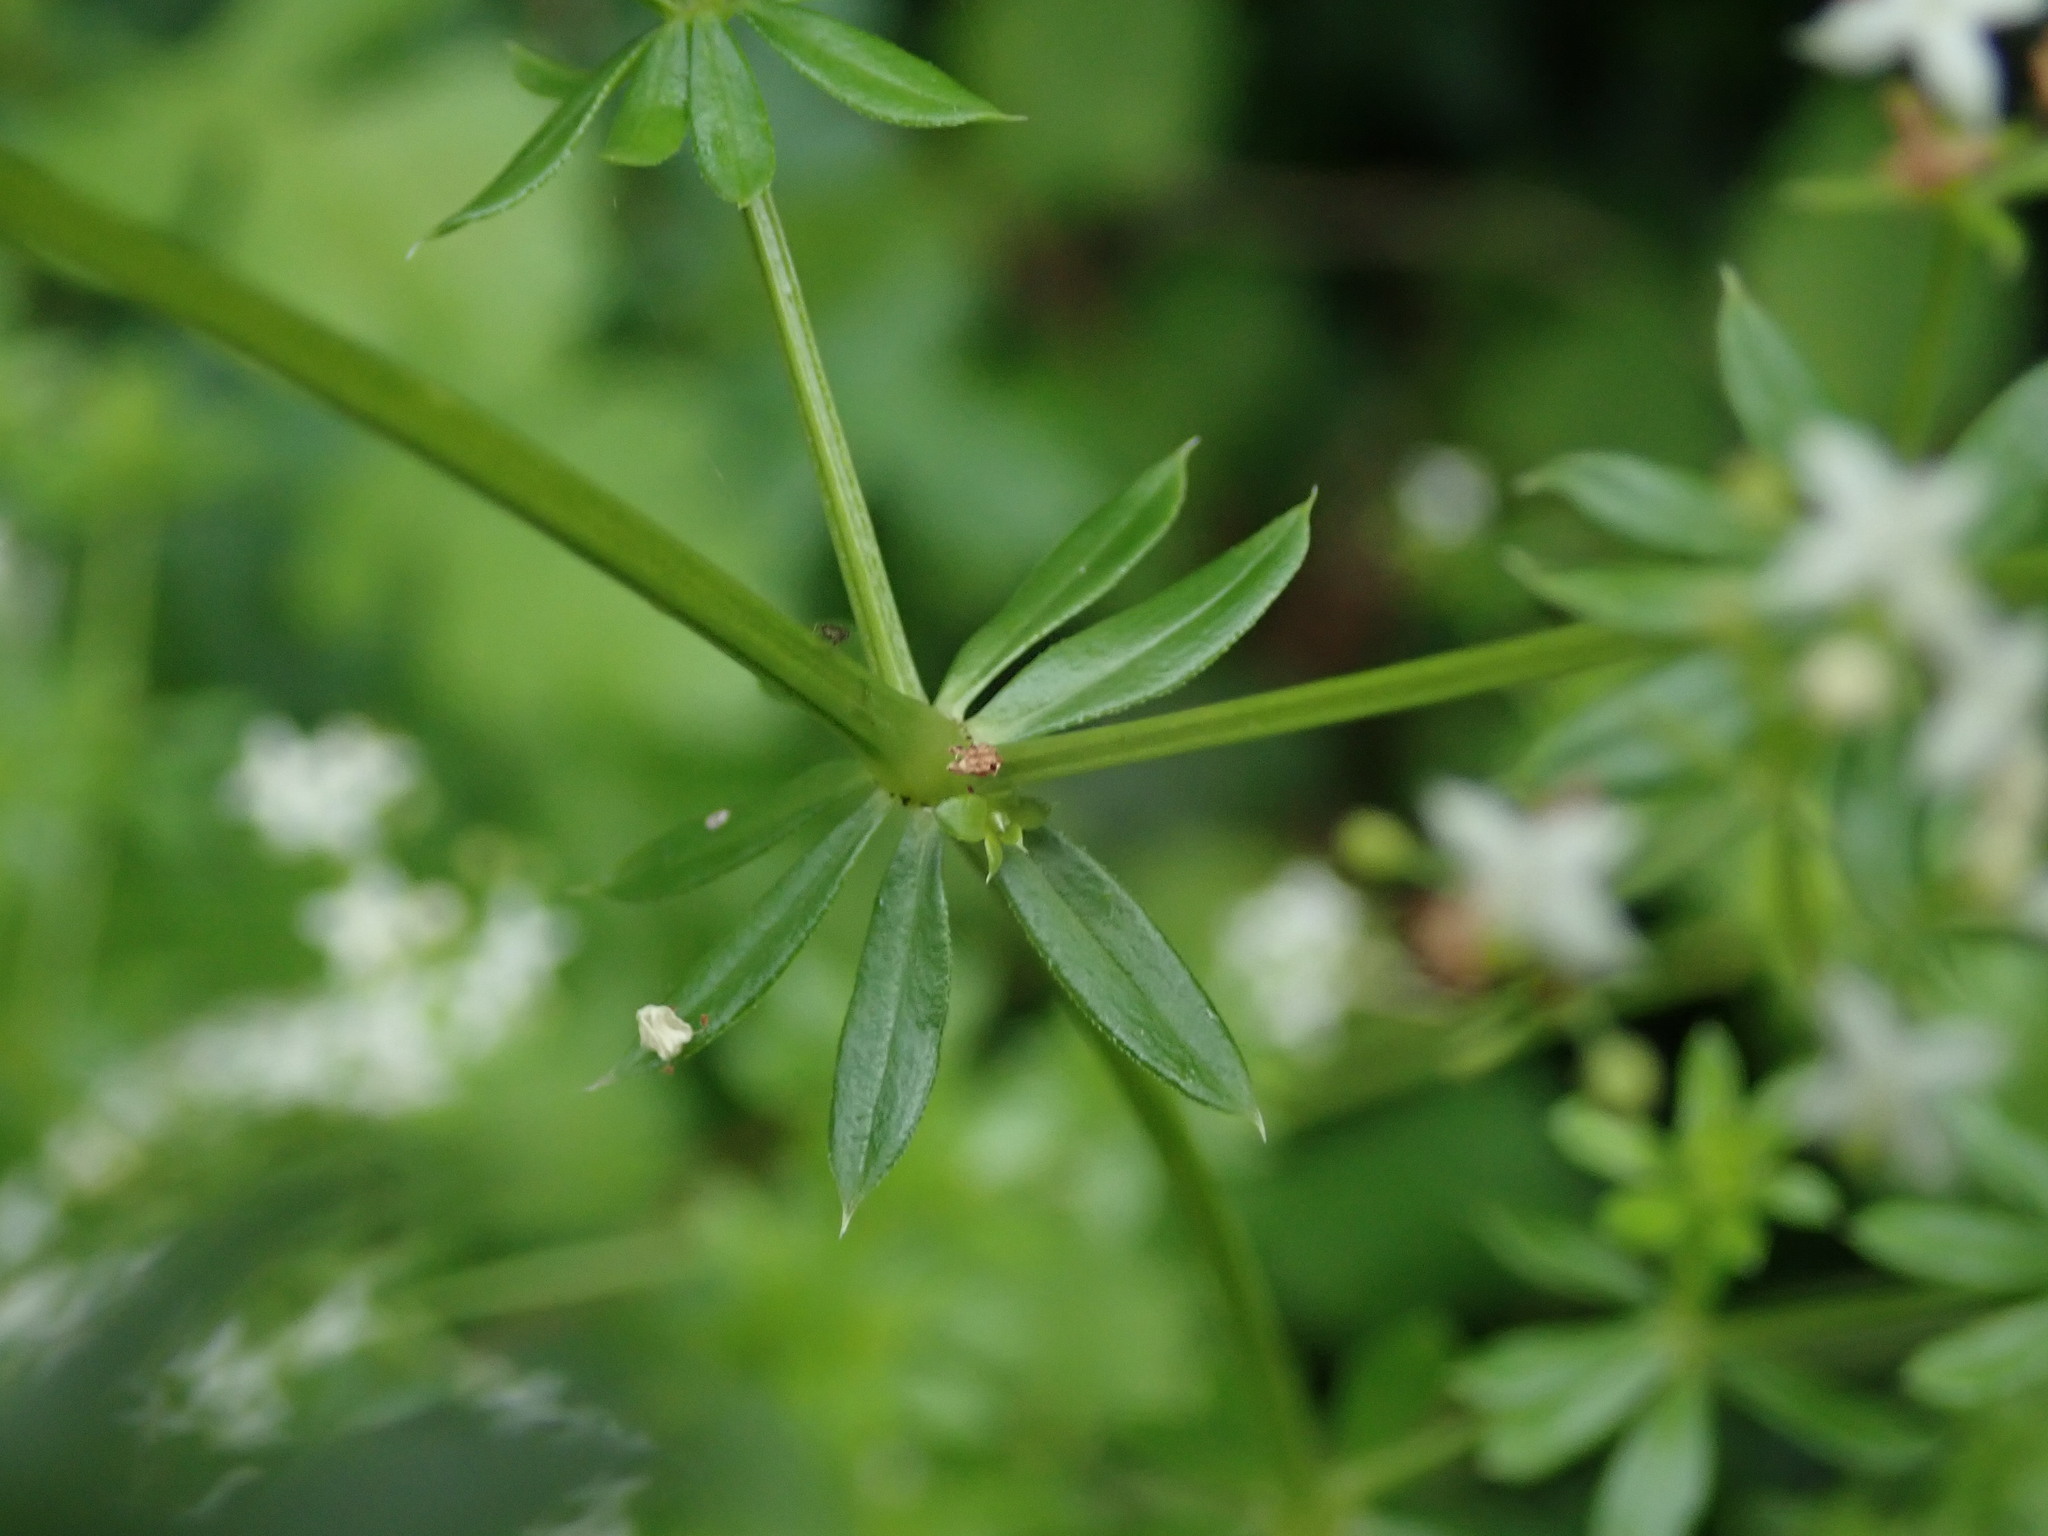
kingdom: Plantae
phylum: Tracheophyta
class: Magnoliopsida
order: Gentianales
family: Rubiaceae
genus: Galium
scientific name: Galium album
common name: White bedstraw
